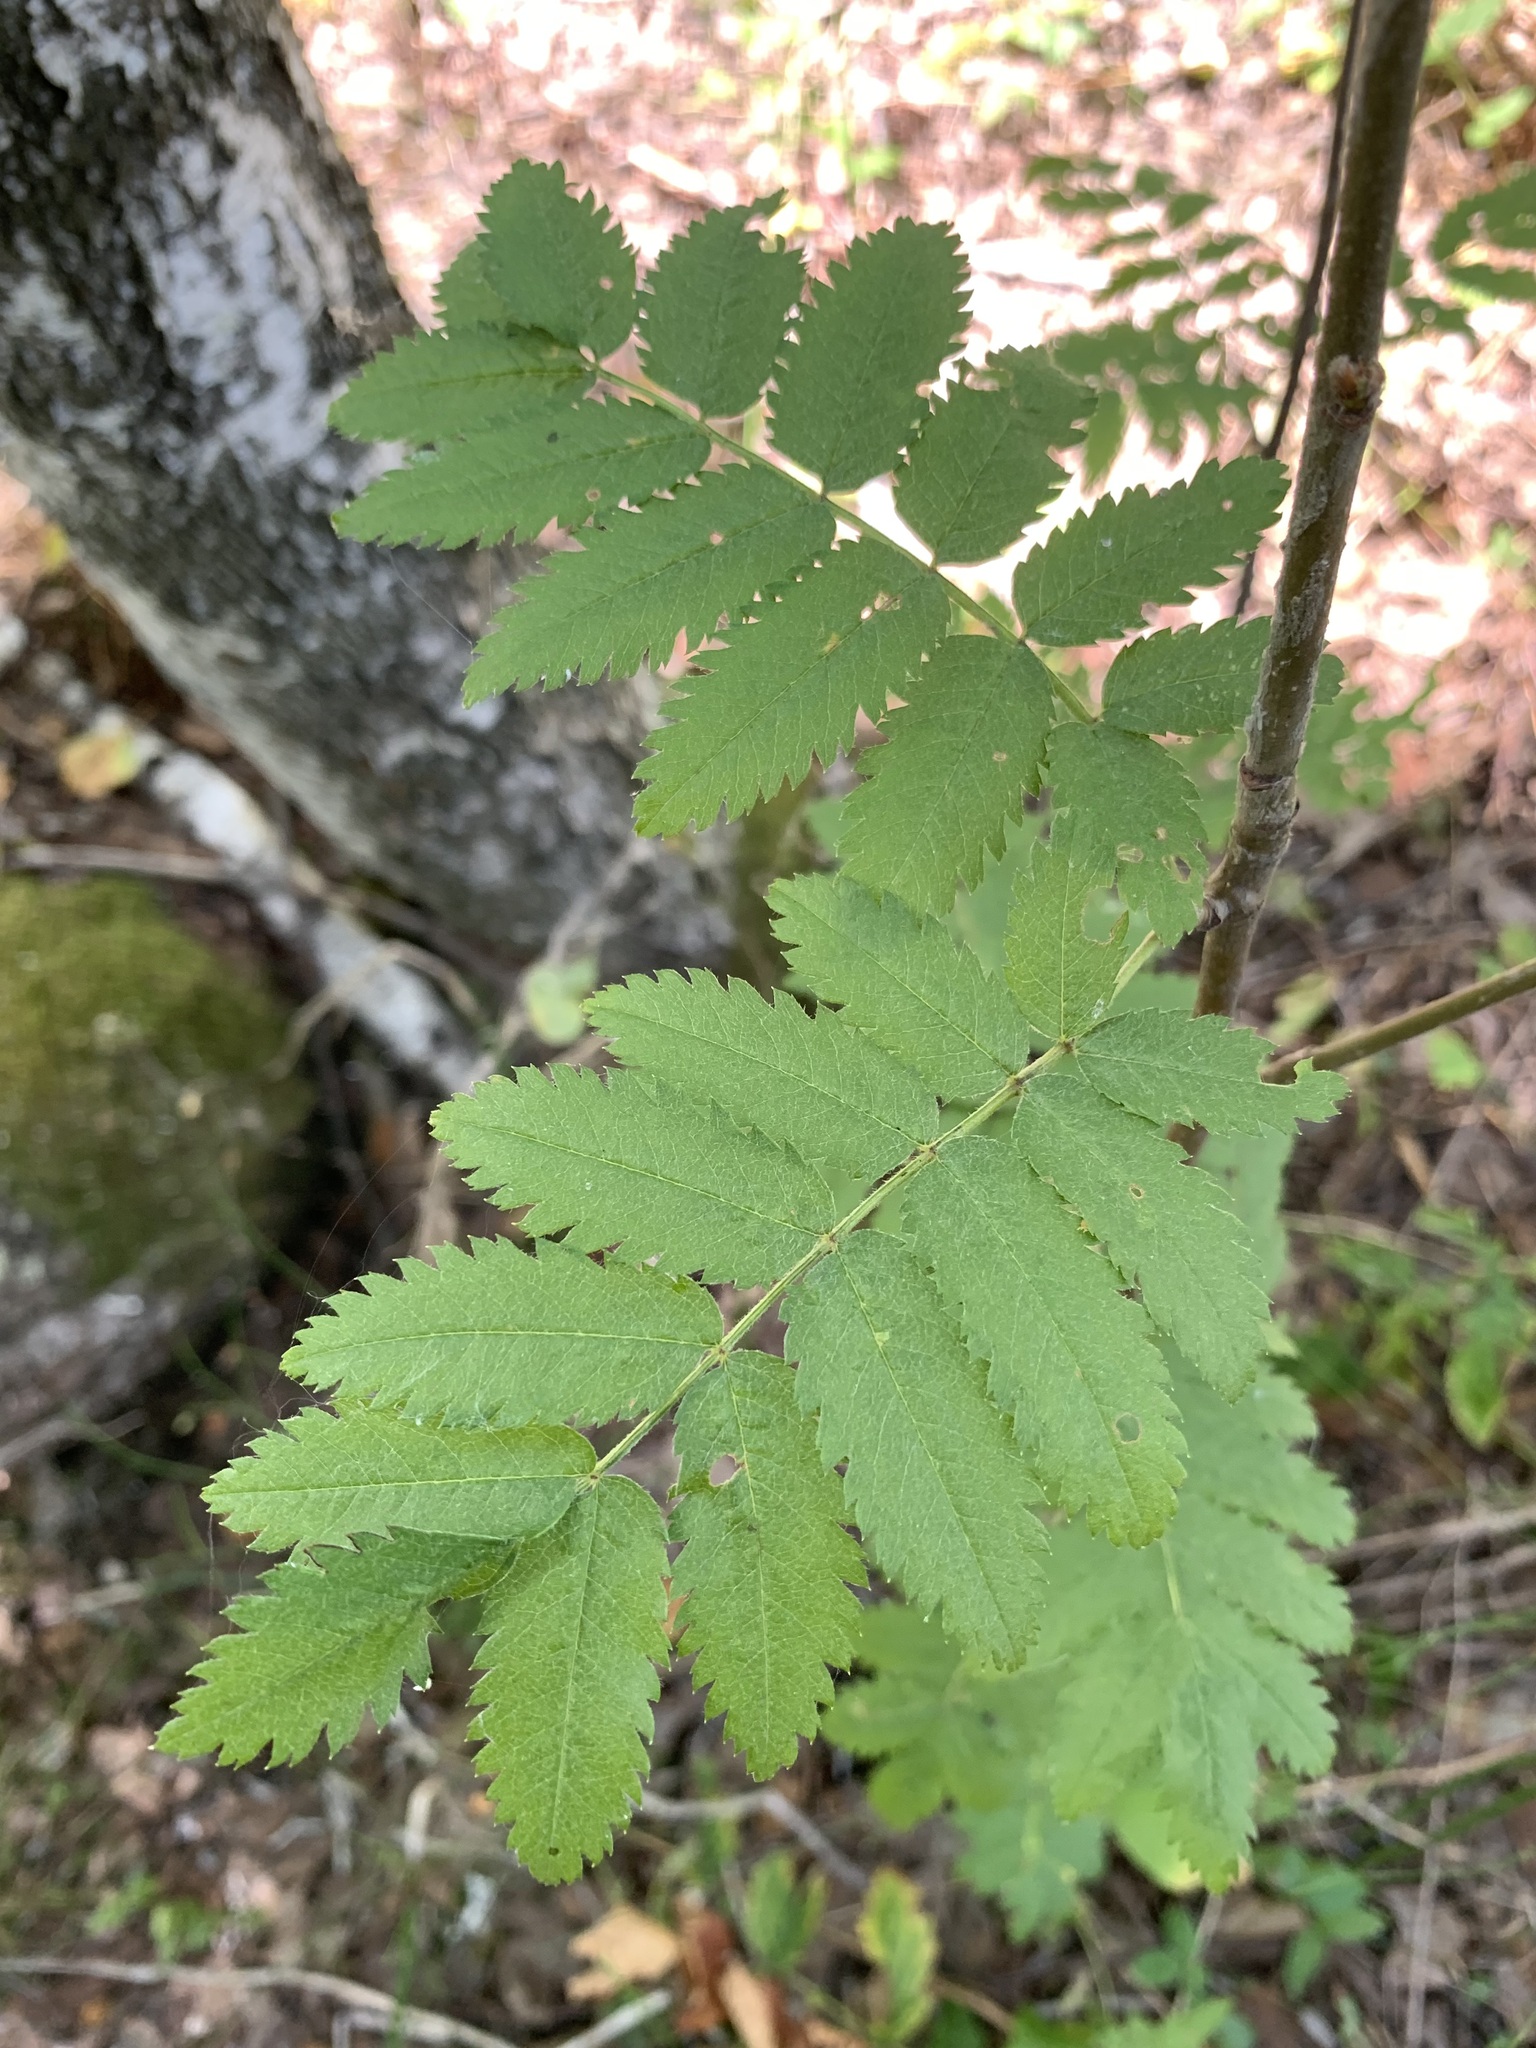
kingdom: Plantae
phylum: Tracheophyta
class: Magnoliopsida
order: Rosales
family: Rosaceae
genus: Sorbus
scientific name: Sorbus aucuparia
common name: Rowan
